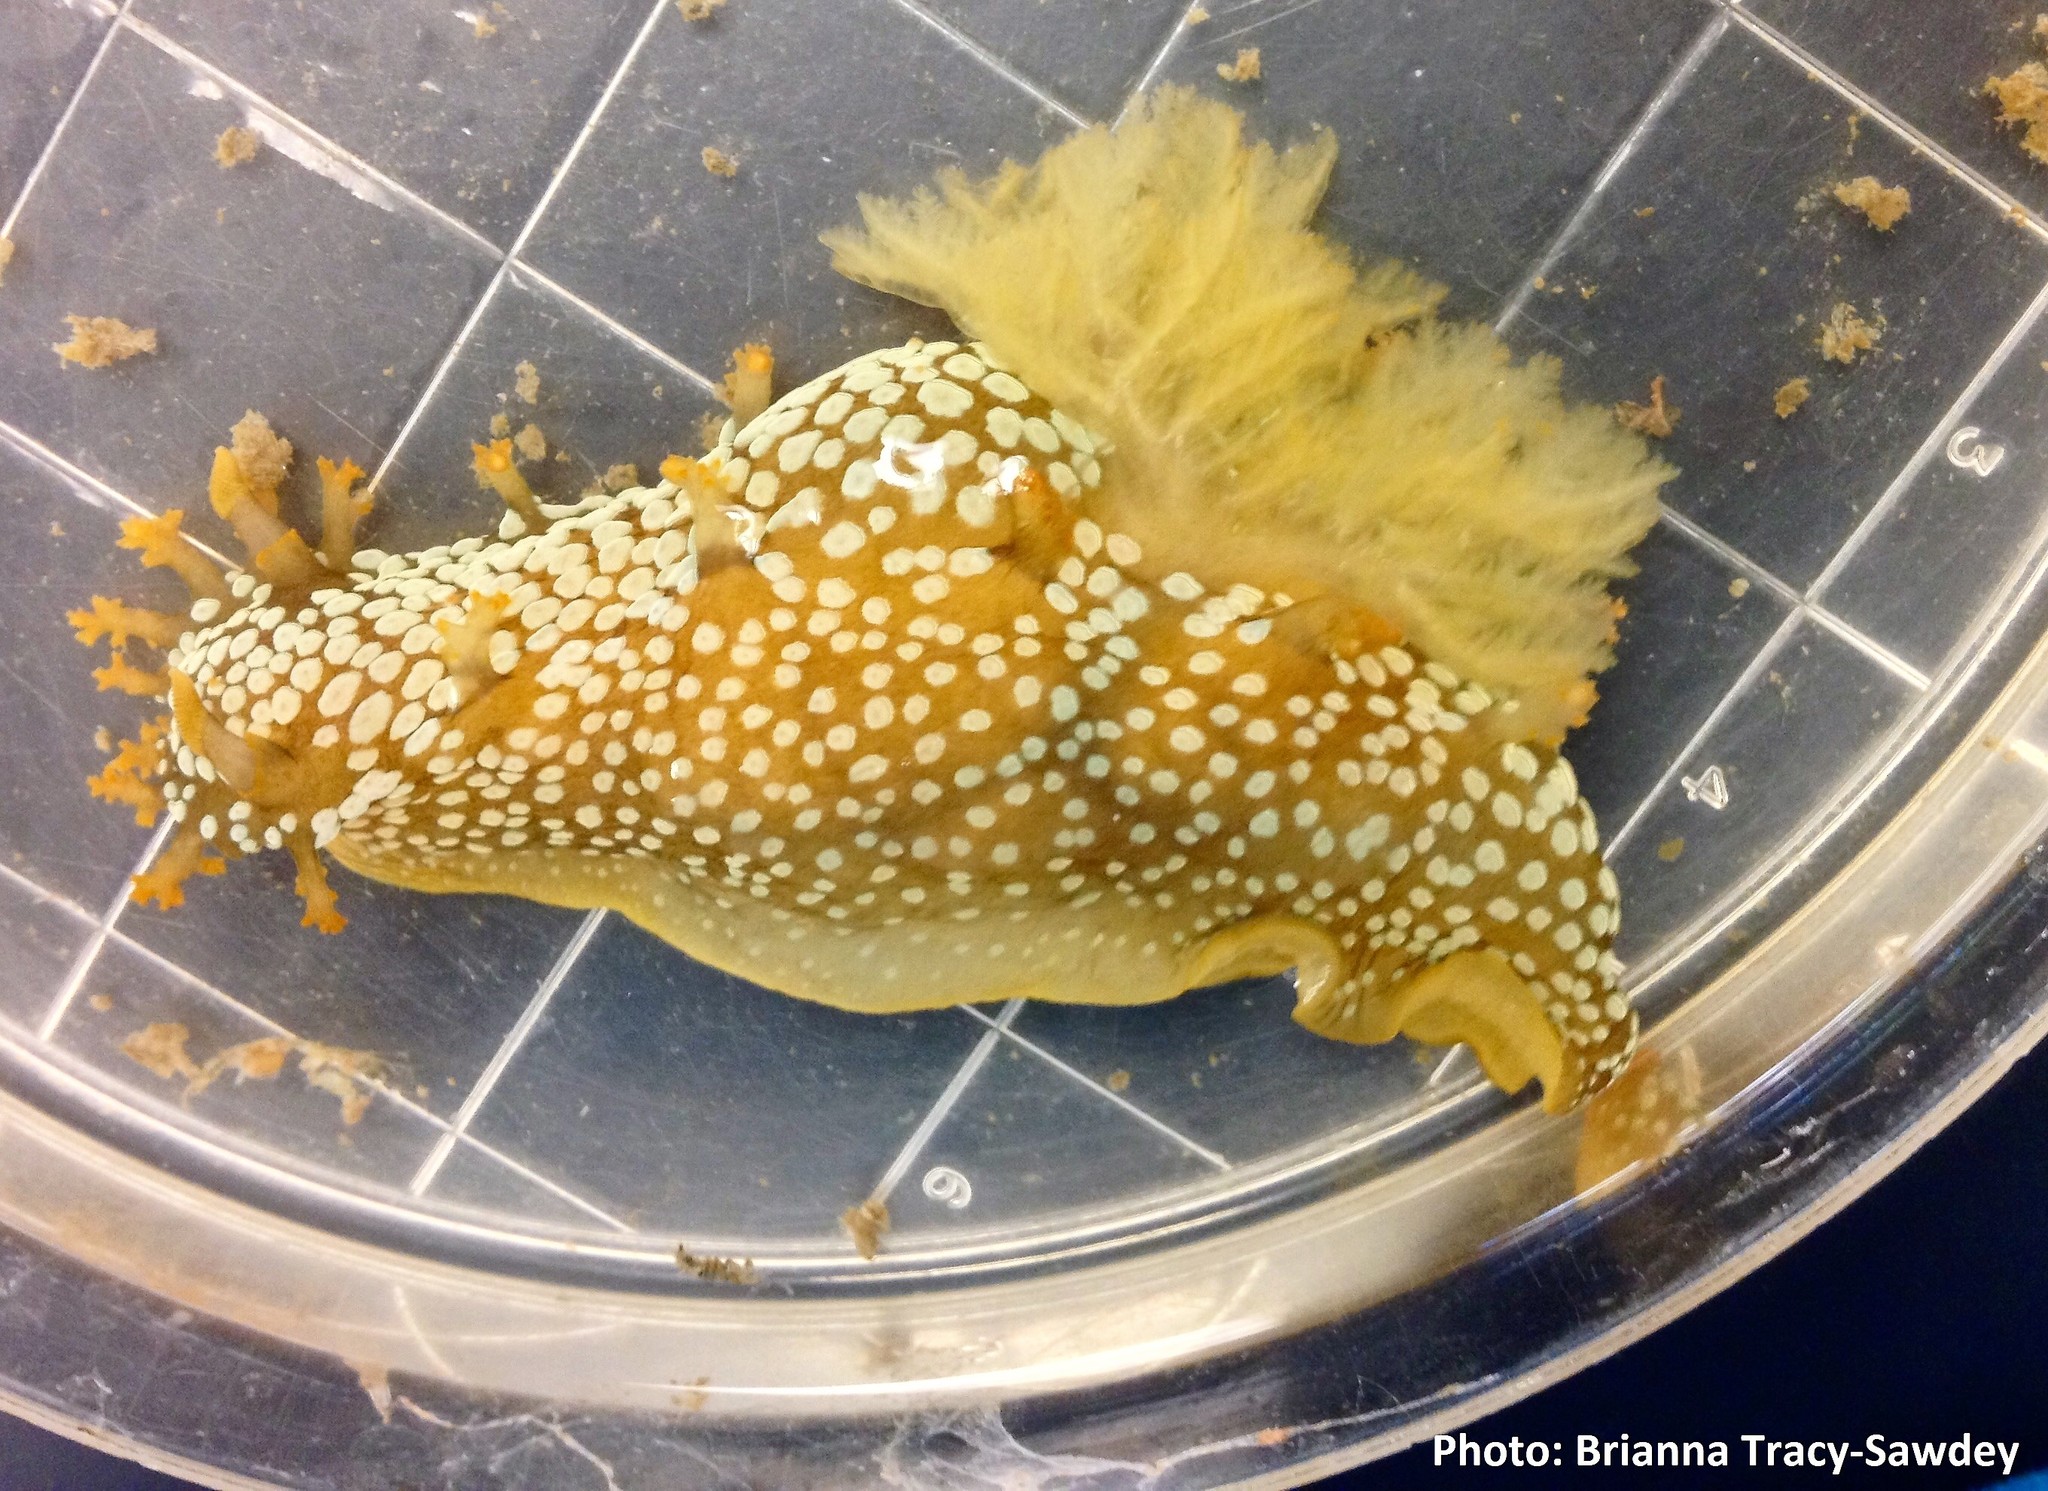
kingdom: Animalia
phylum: Mollusca
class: Gastropoda
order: Nudibranchia
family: Polyceridae
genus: Triopha
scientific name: Triopha maculata
